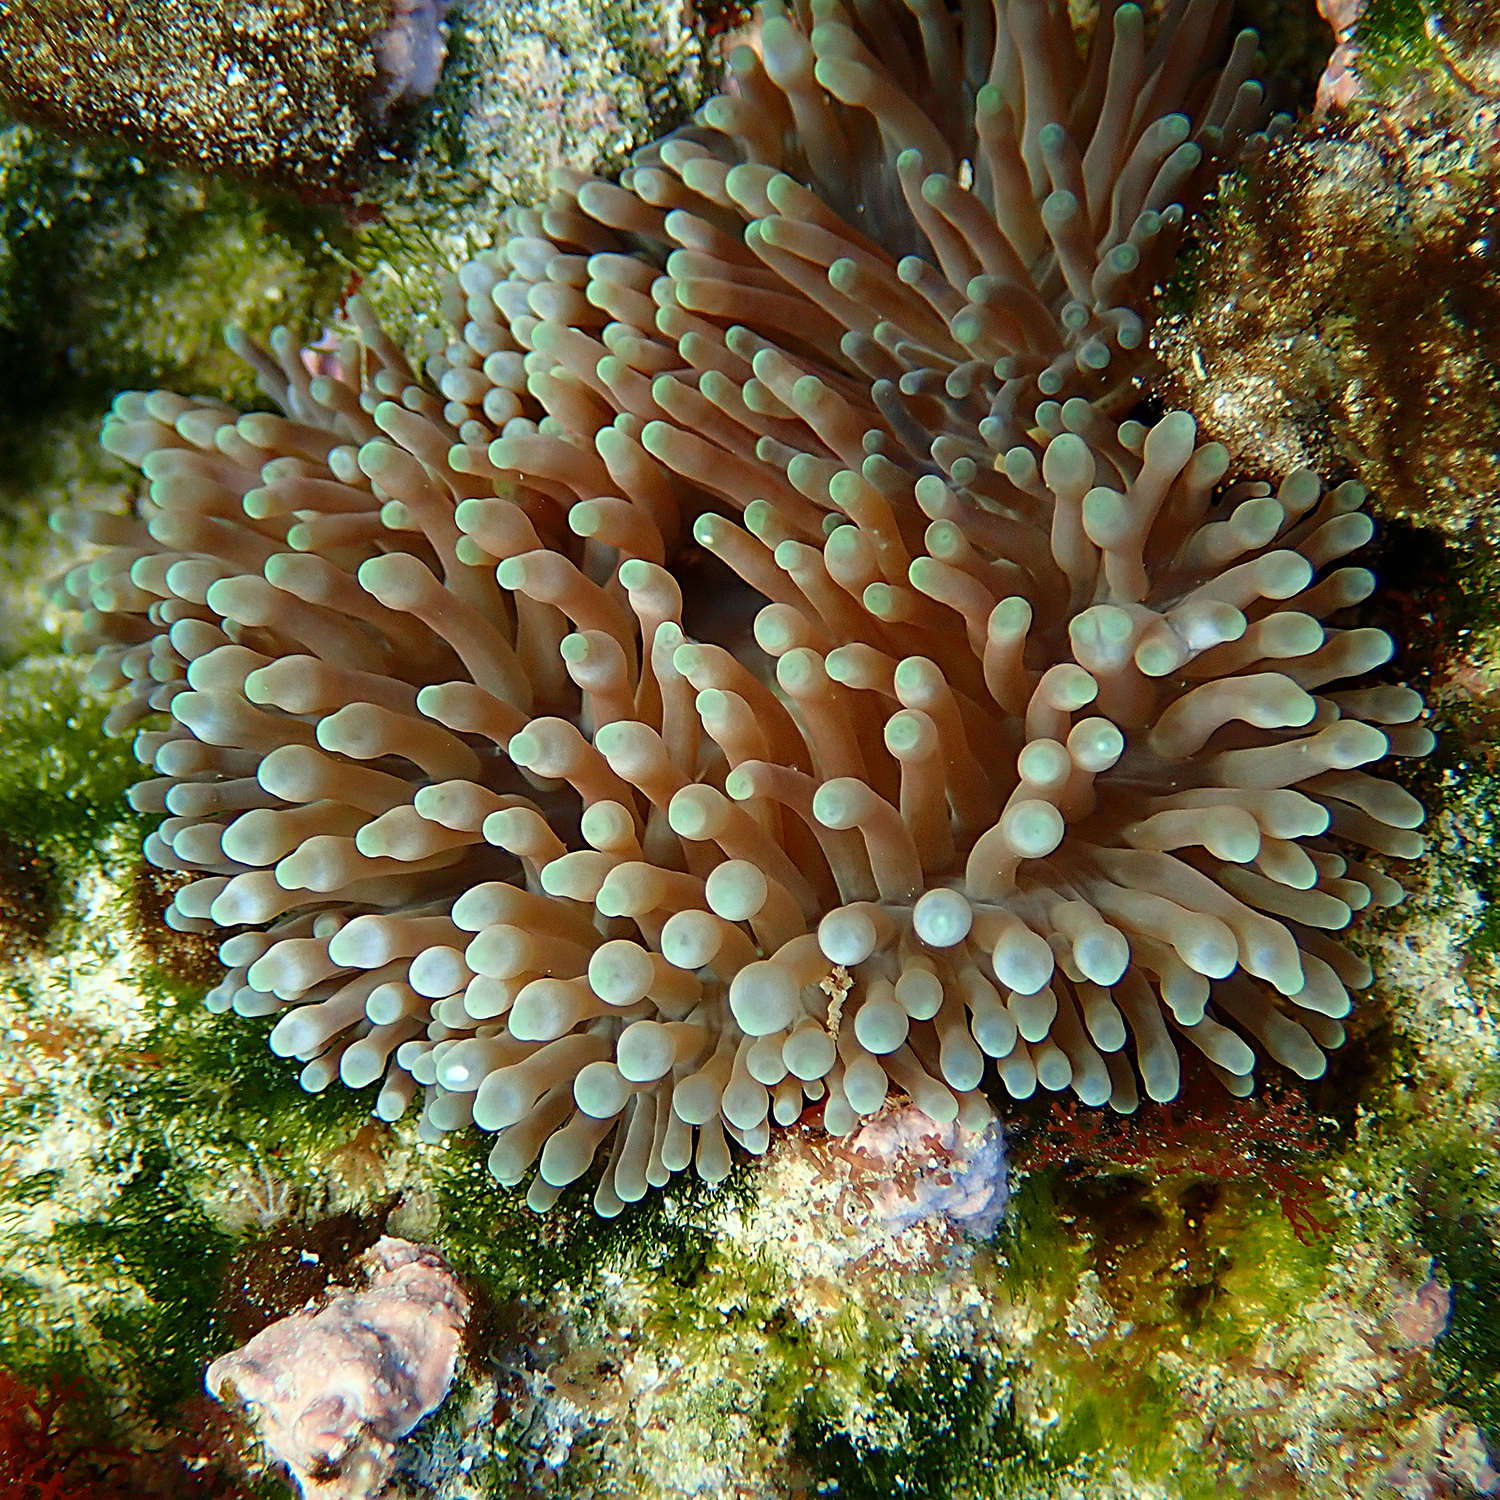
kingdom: Animalia
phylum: Cnidaria
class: Anthozoa
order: Actiniaria
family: Actiniidae
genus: Entacmaea
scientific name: Entacmaea quadricolor
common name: Bulb tentacle sea anemone
